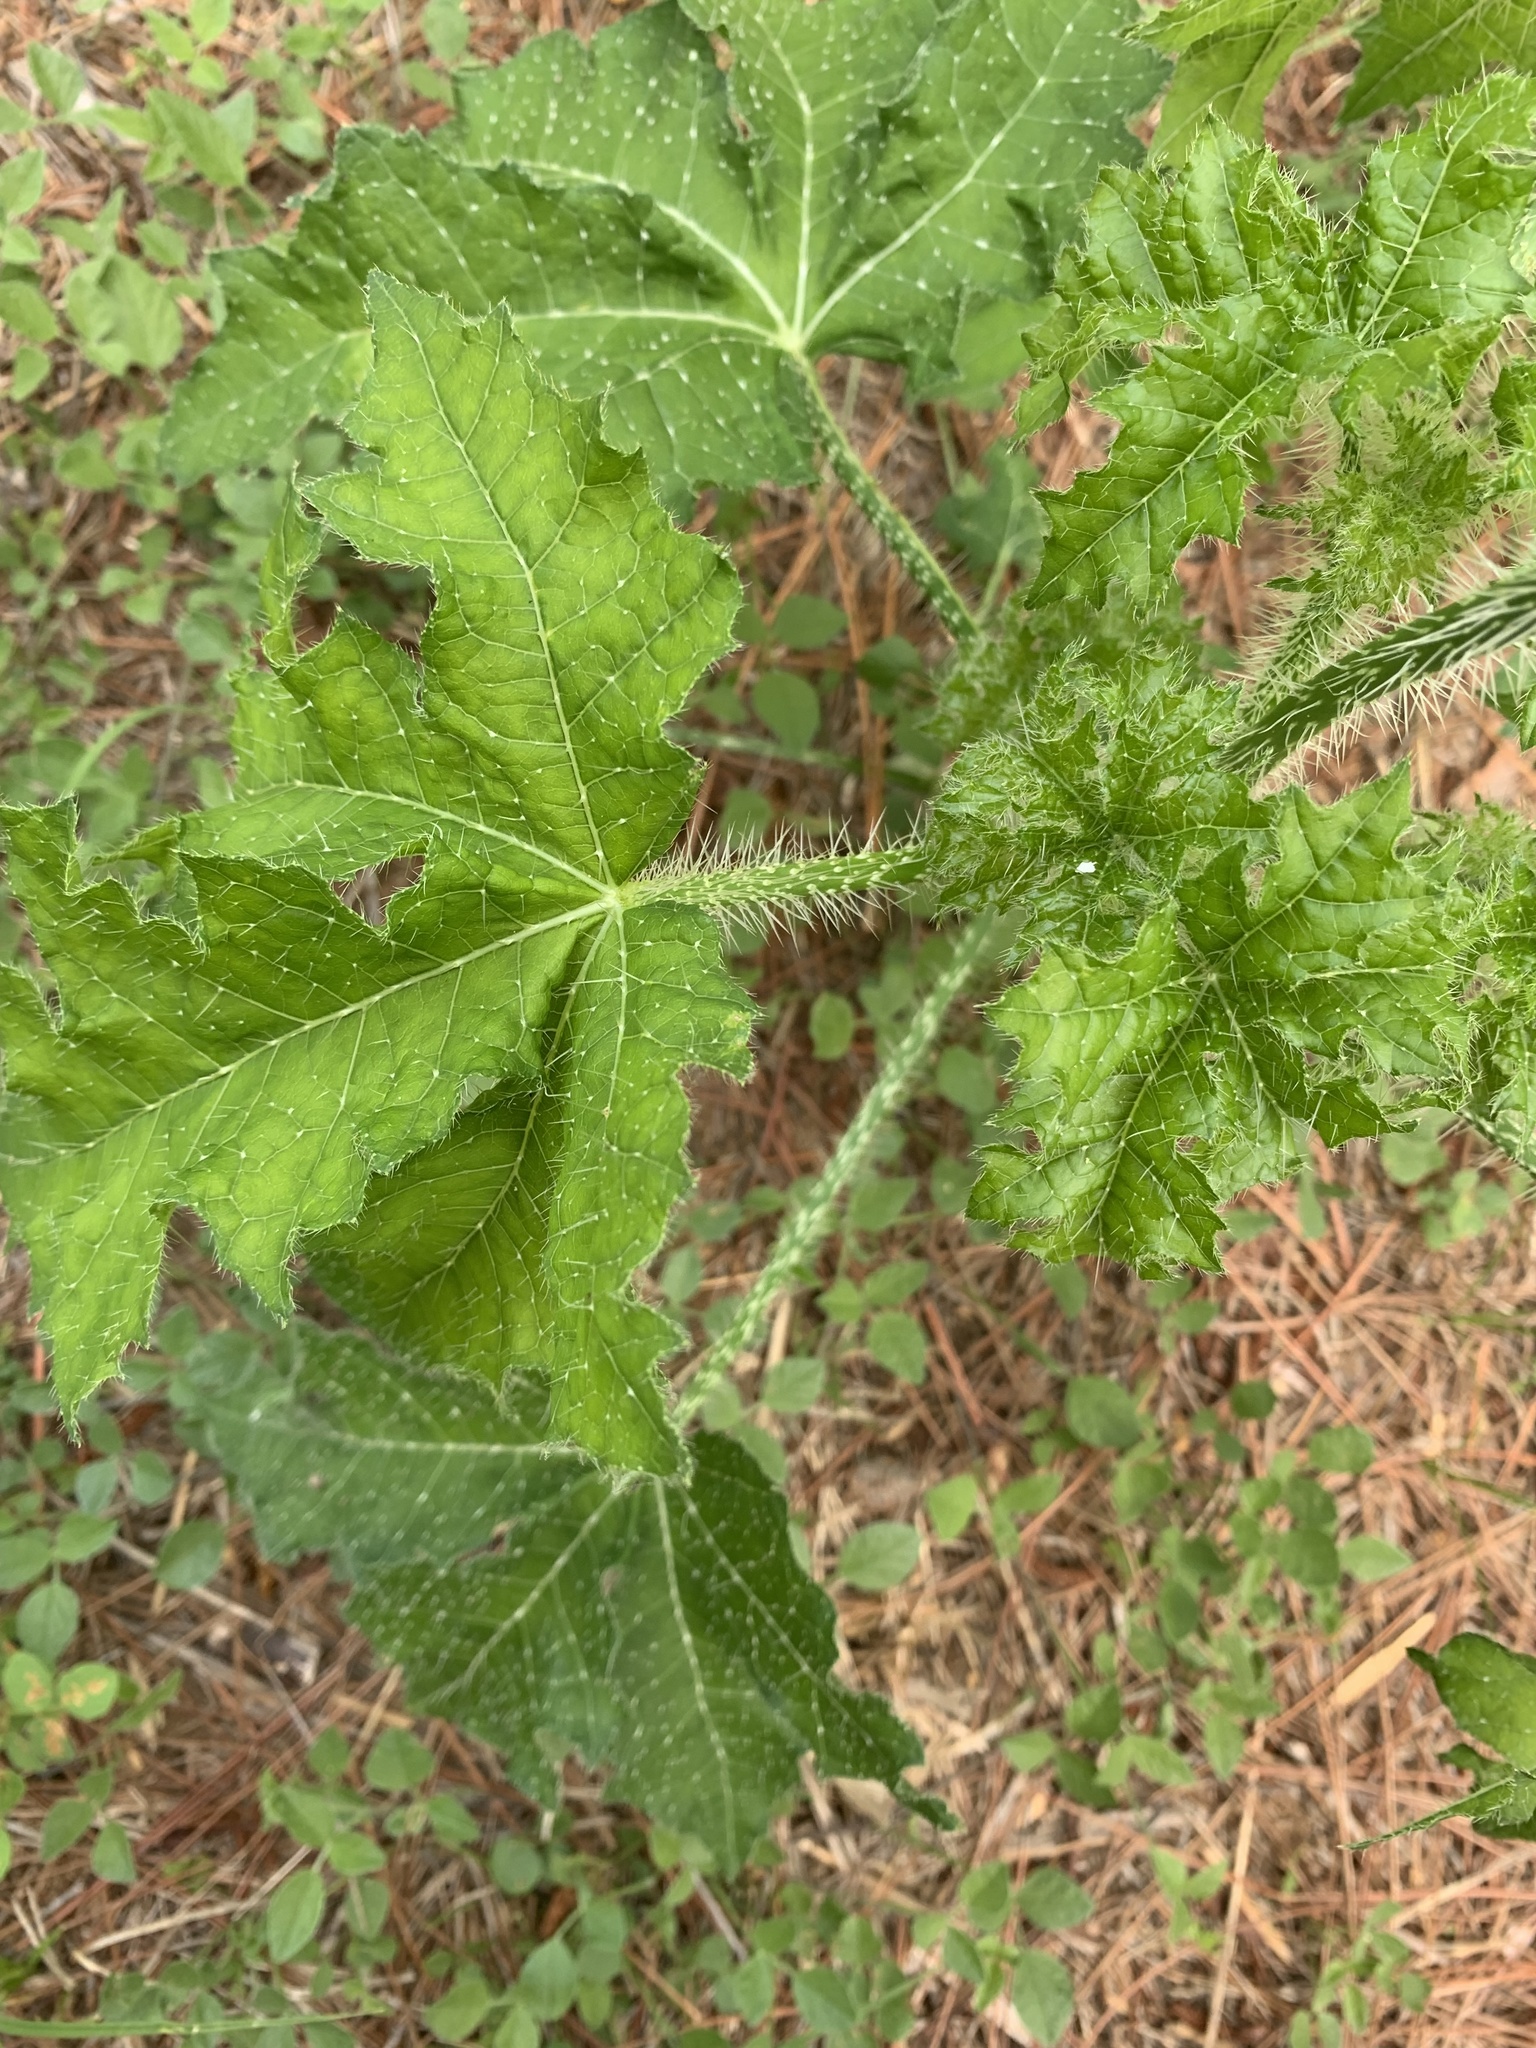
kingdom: Plantae
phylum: Tracheophyta
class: Magnoliopsida
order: Malpighiales
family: Euphorbiaceae
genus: Cnidoscolus
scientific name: Cnidoscolus texanus
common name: Texas bull-nettle
